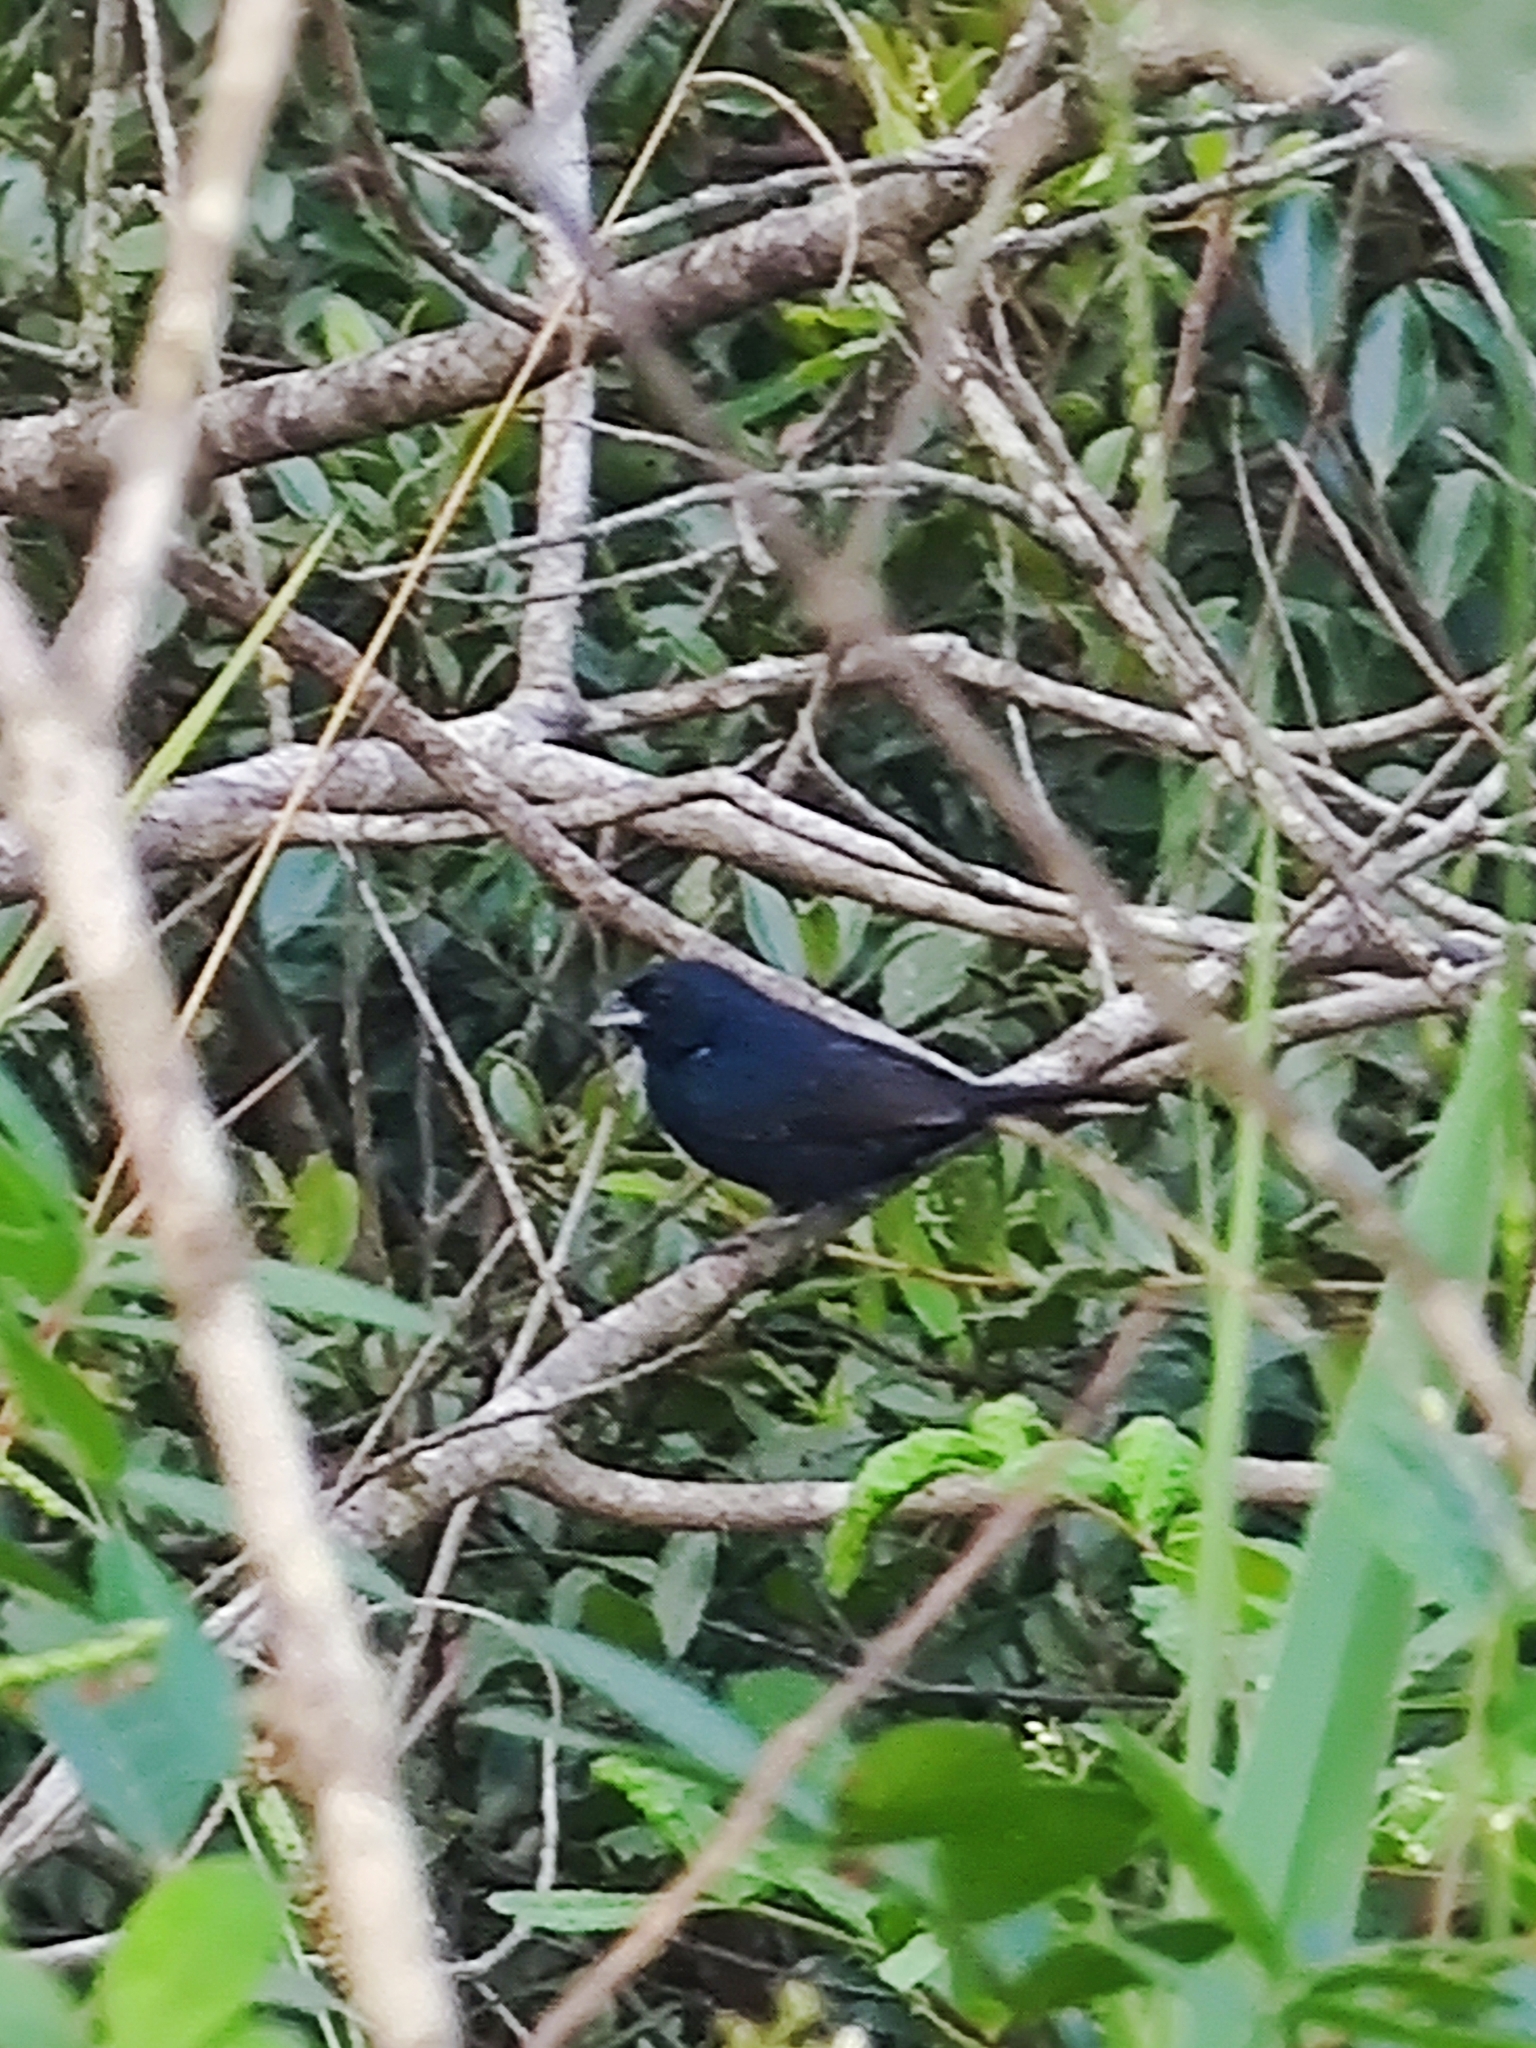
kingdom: Animalia
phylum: Chordata
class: Aves
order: Passeriformes
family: Thraupidae
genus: Volatinia
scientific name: Volatinia jacarina
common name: Blue-black grassquit
